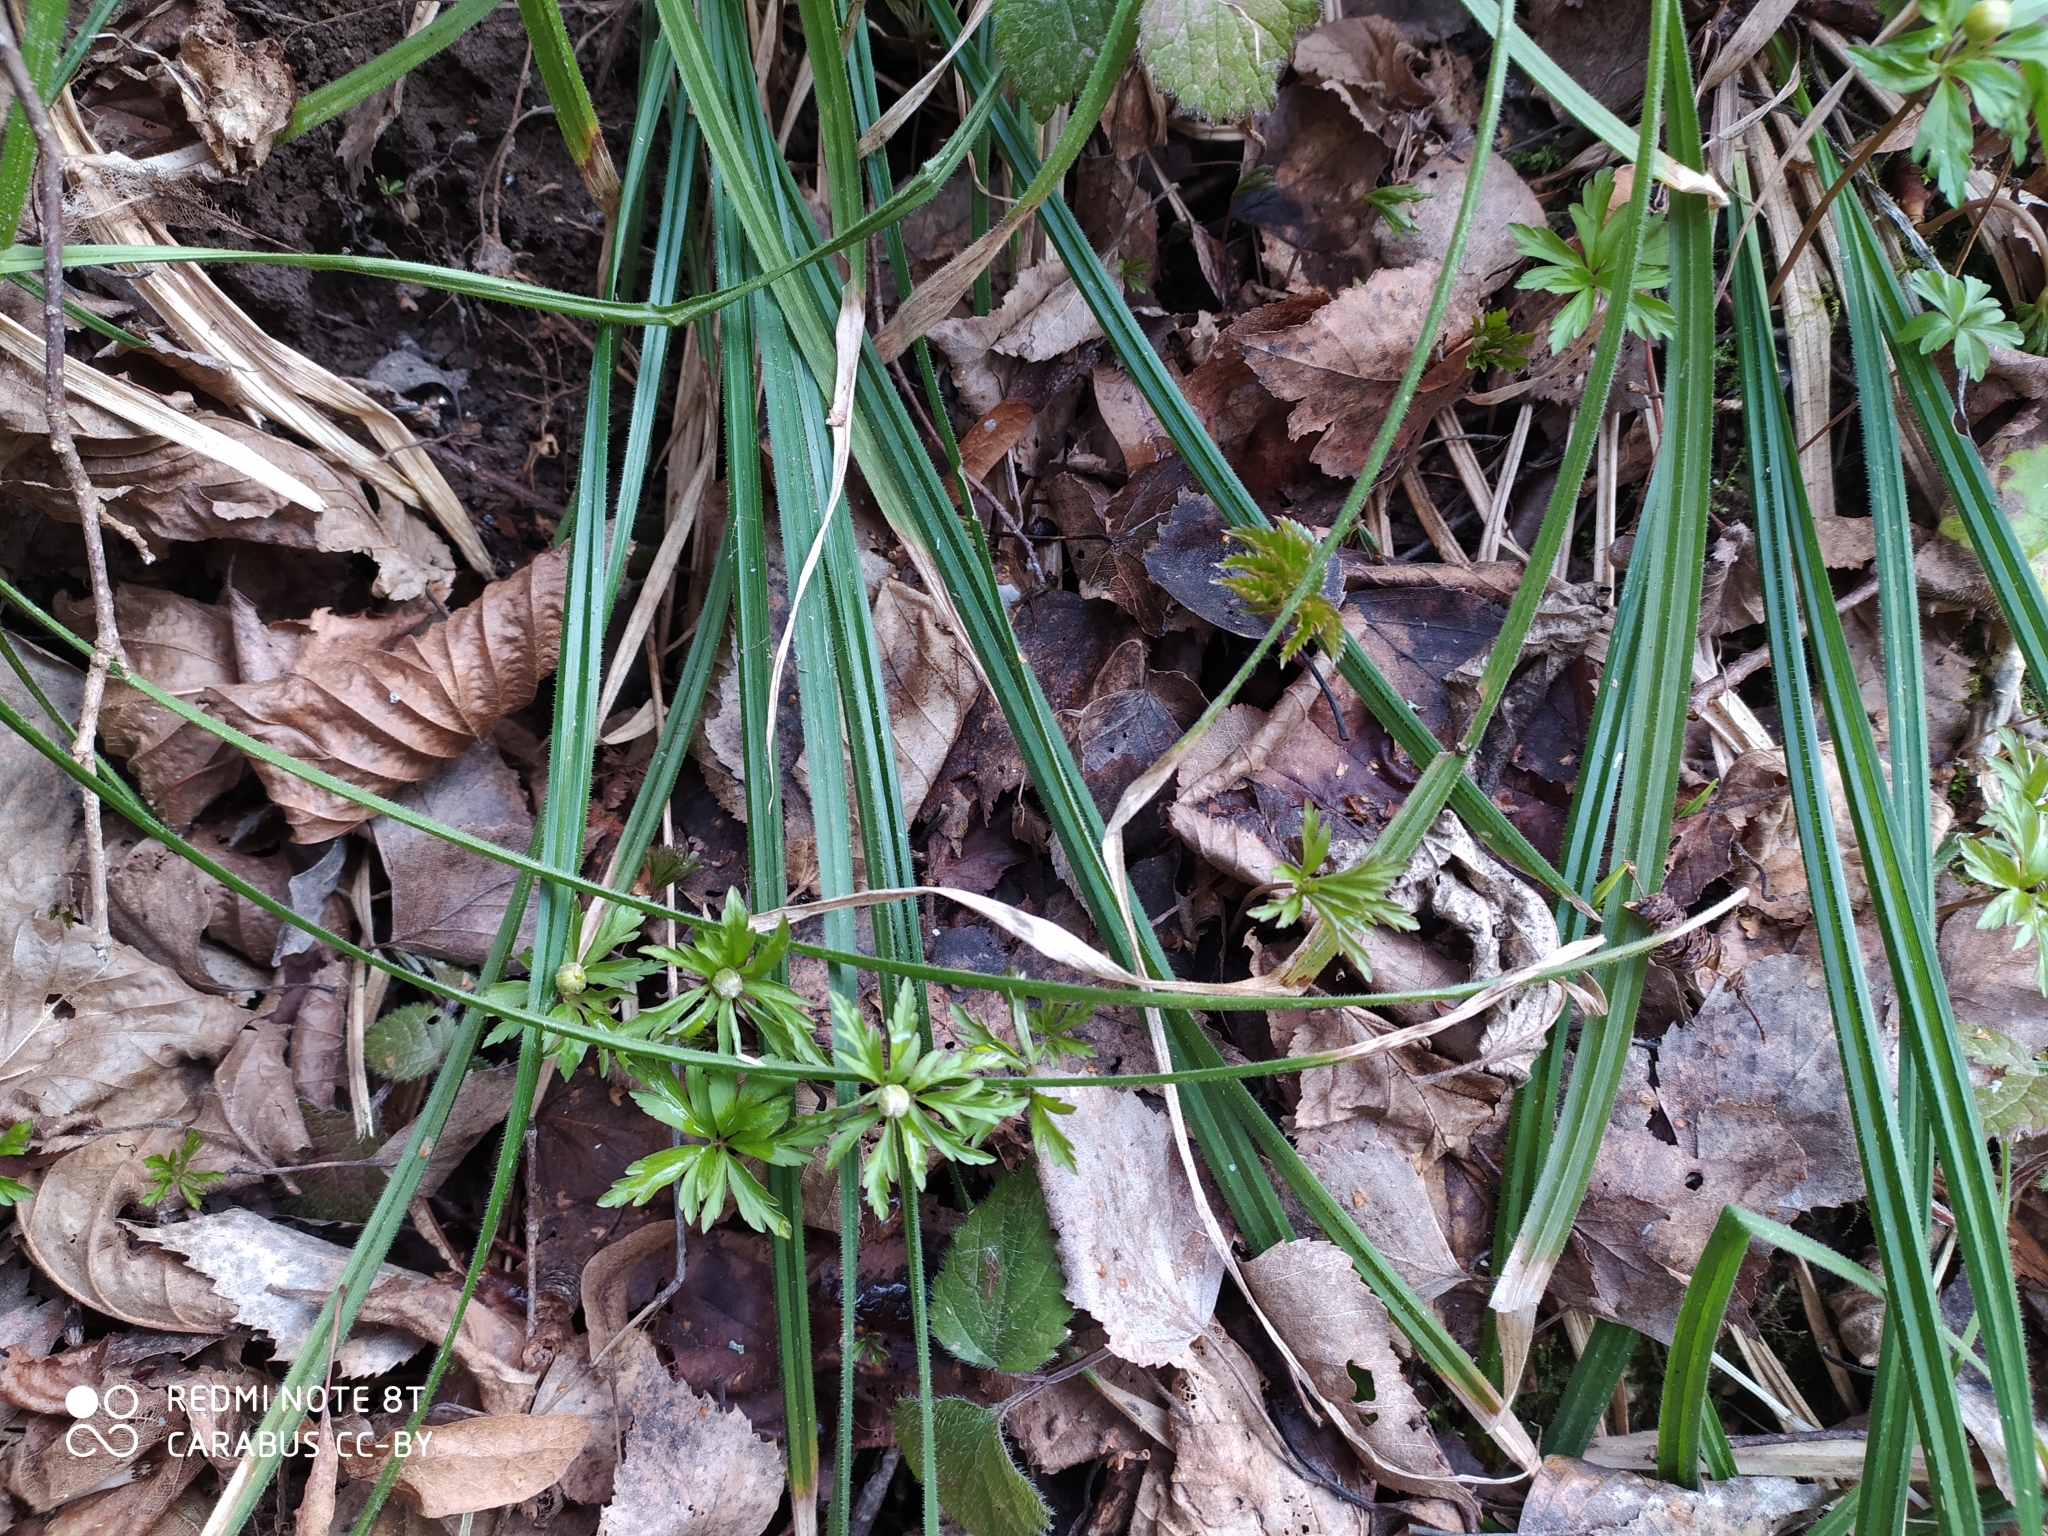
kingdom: Plantae
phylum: Tracheophyta
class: Magnoliopsida
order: Ranunculales
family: Ranunculaceae
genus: Anemone
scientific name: Anemone ranunculoides
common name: Yellow anemone
